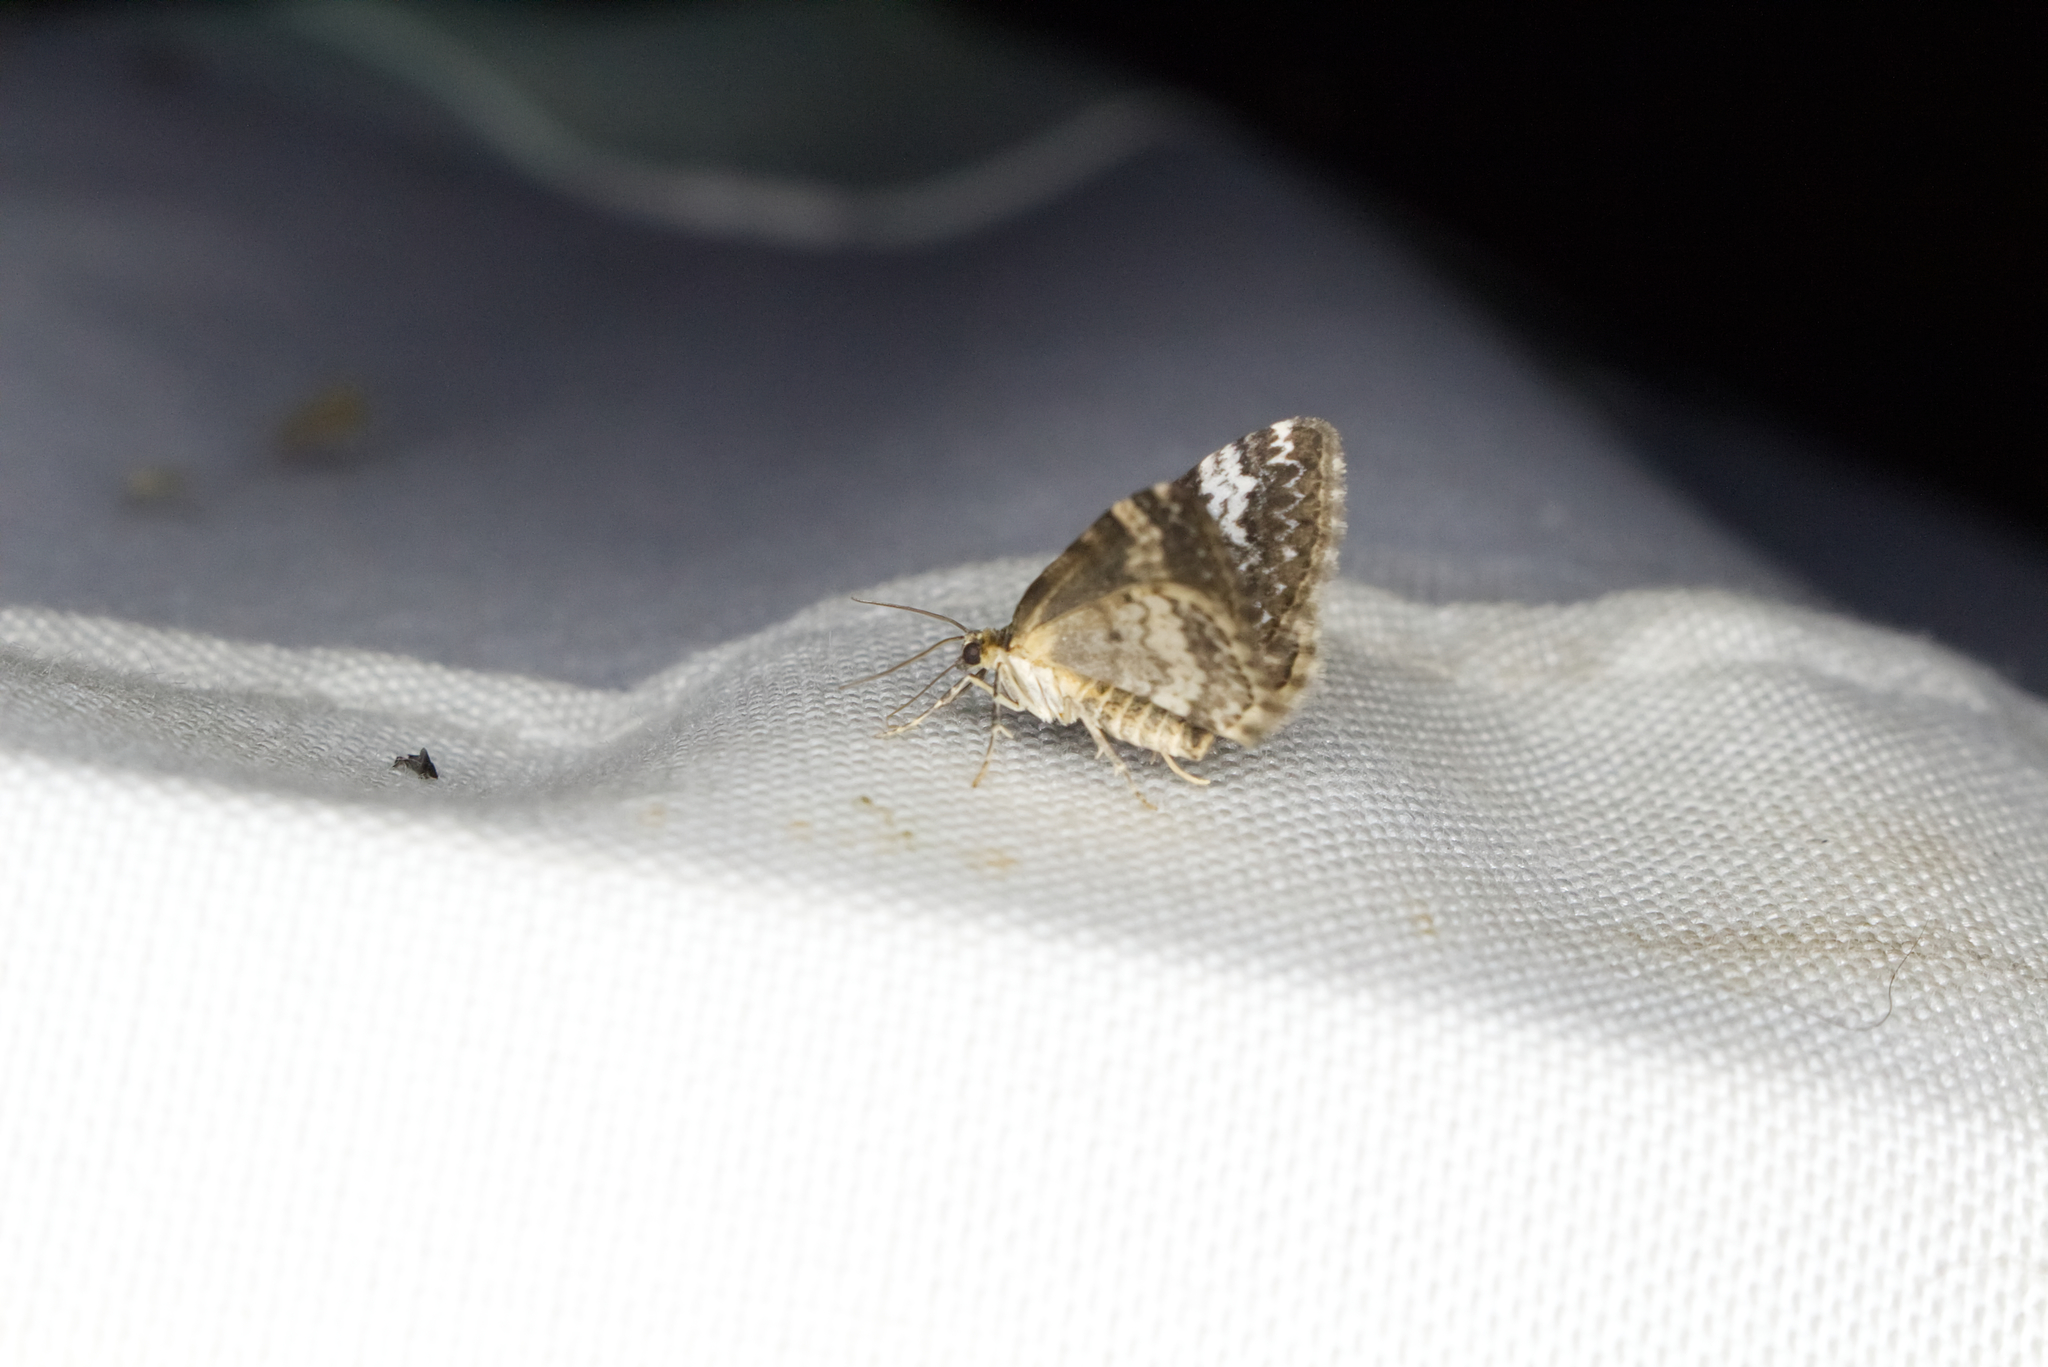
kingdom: Animalia
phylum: Arthropoda
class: Insecta
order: Lepidoptera
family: Geometridae
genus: Perizoma
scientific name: Perizoma alchemillata
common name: Small rivulet
